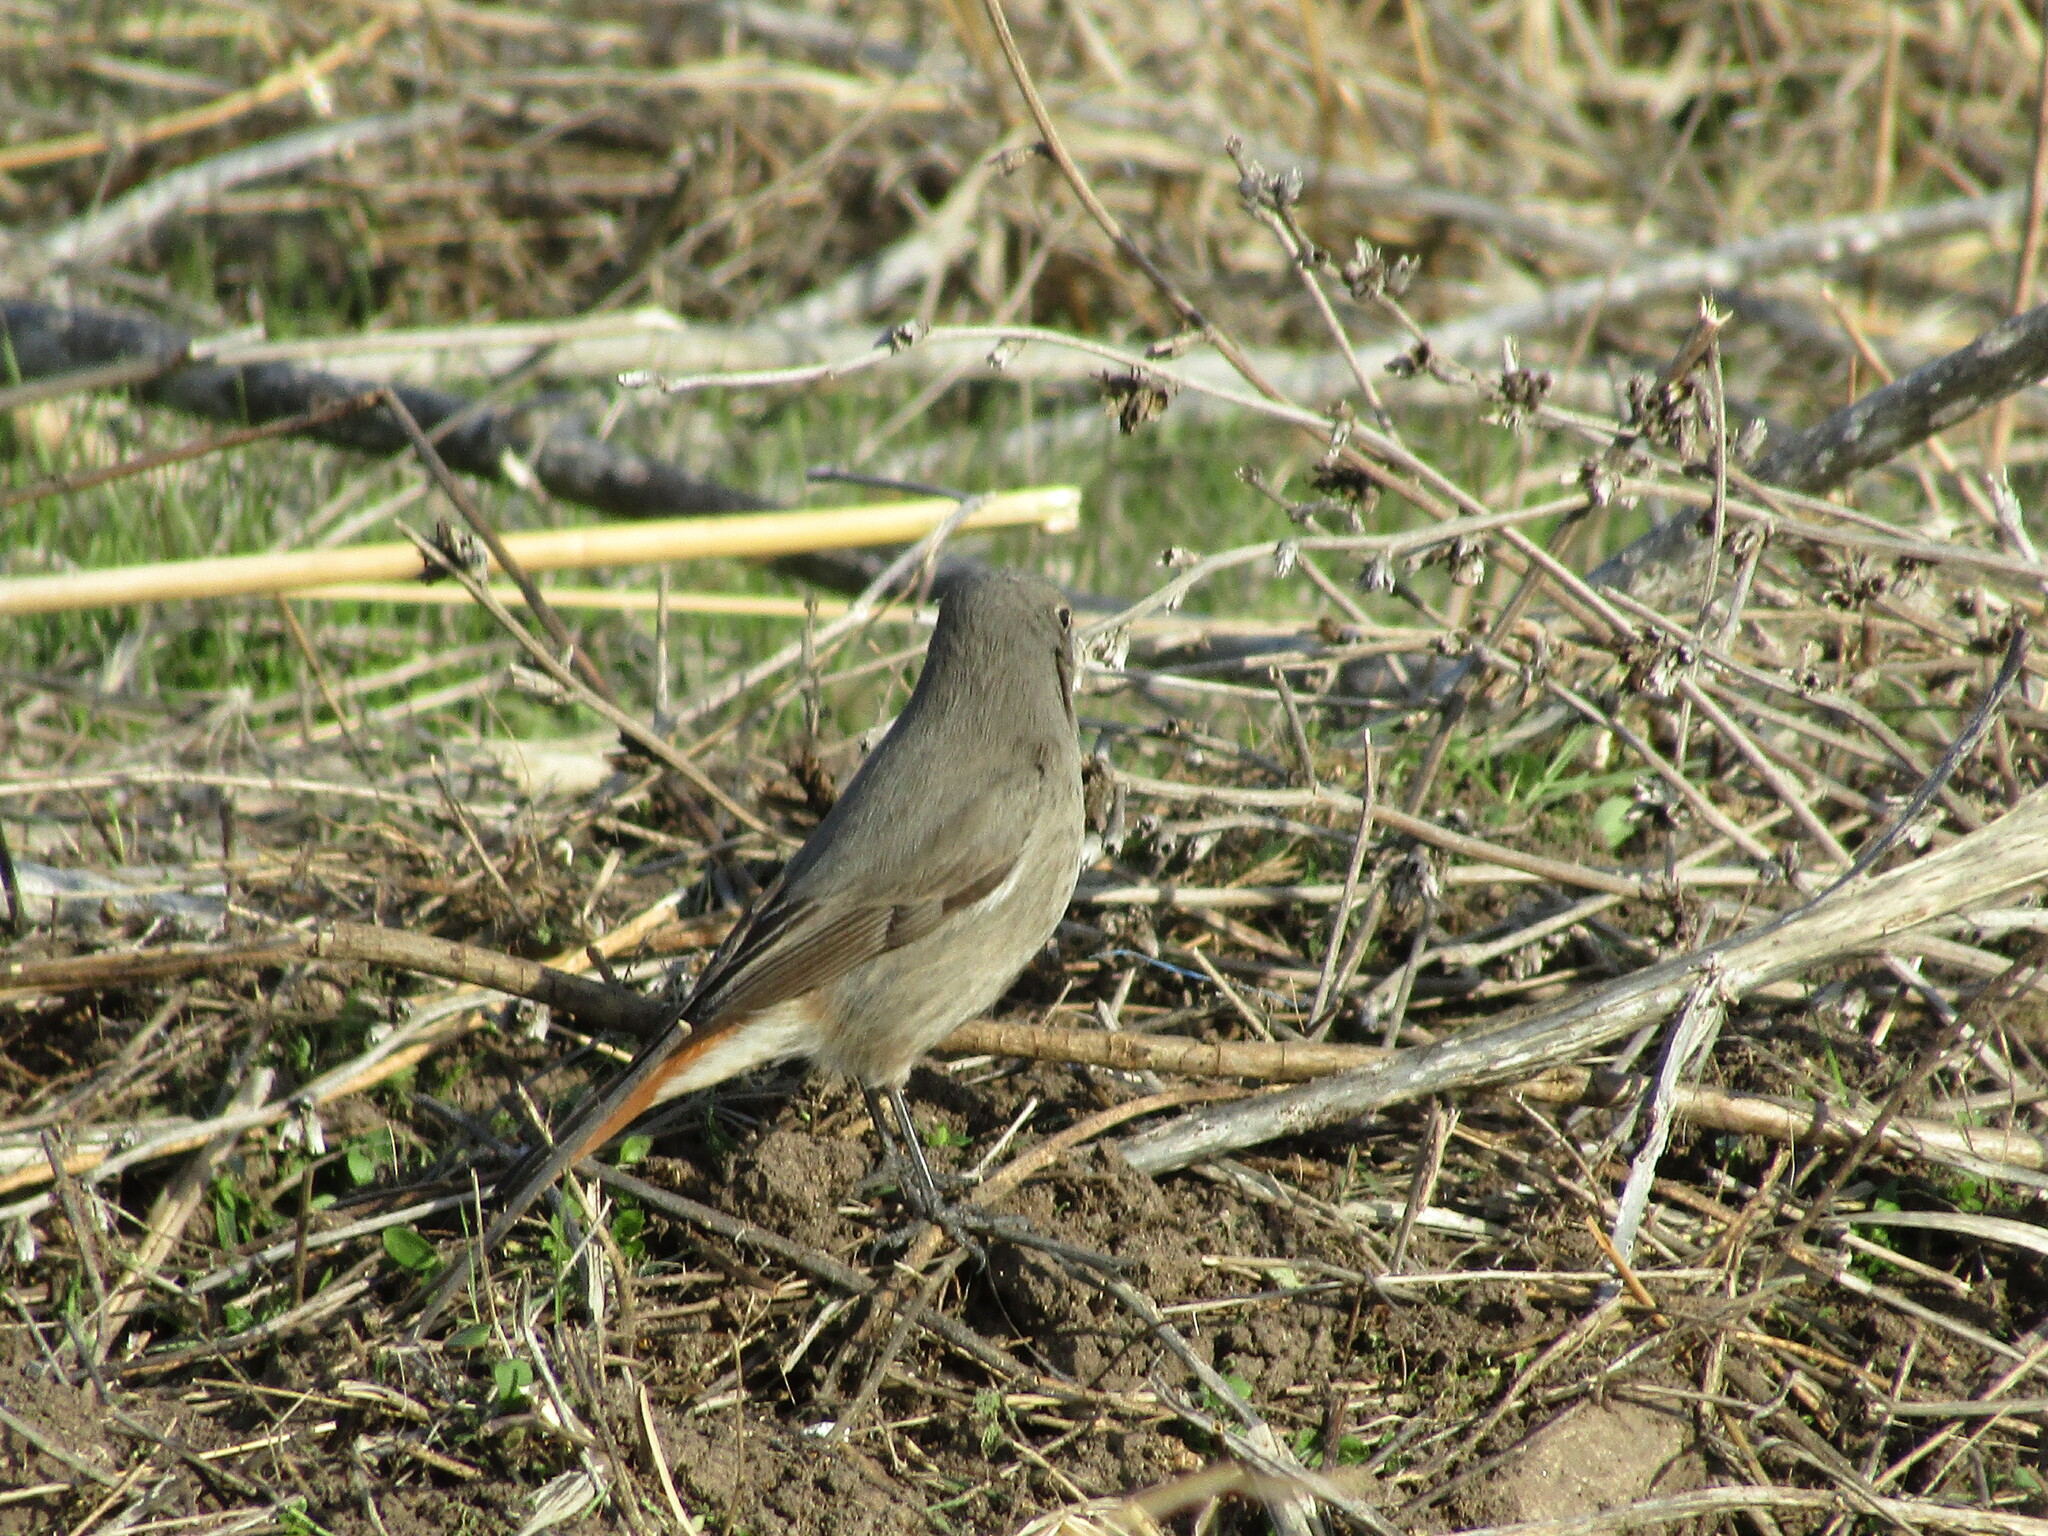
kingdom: Animalia
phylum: Chordata
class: Aves
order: Passeriformes
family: Muscicapidae
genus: Phoenicurus
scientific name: Phoenicurus ochruros
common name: Black redstart
